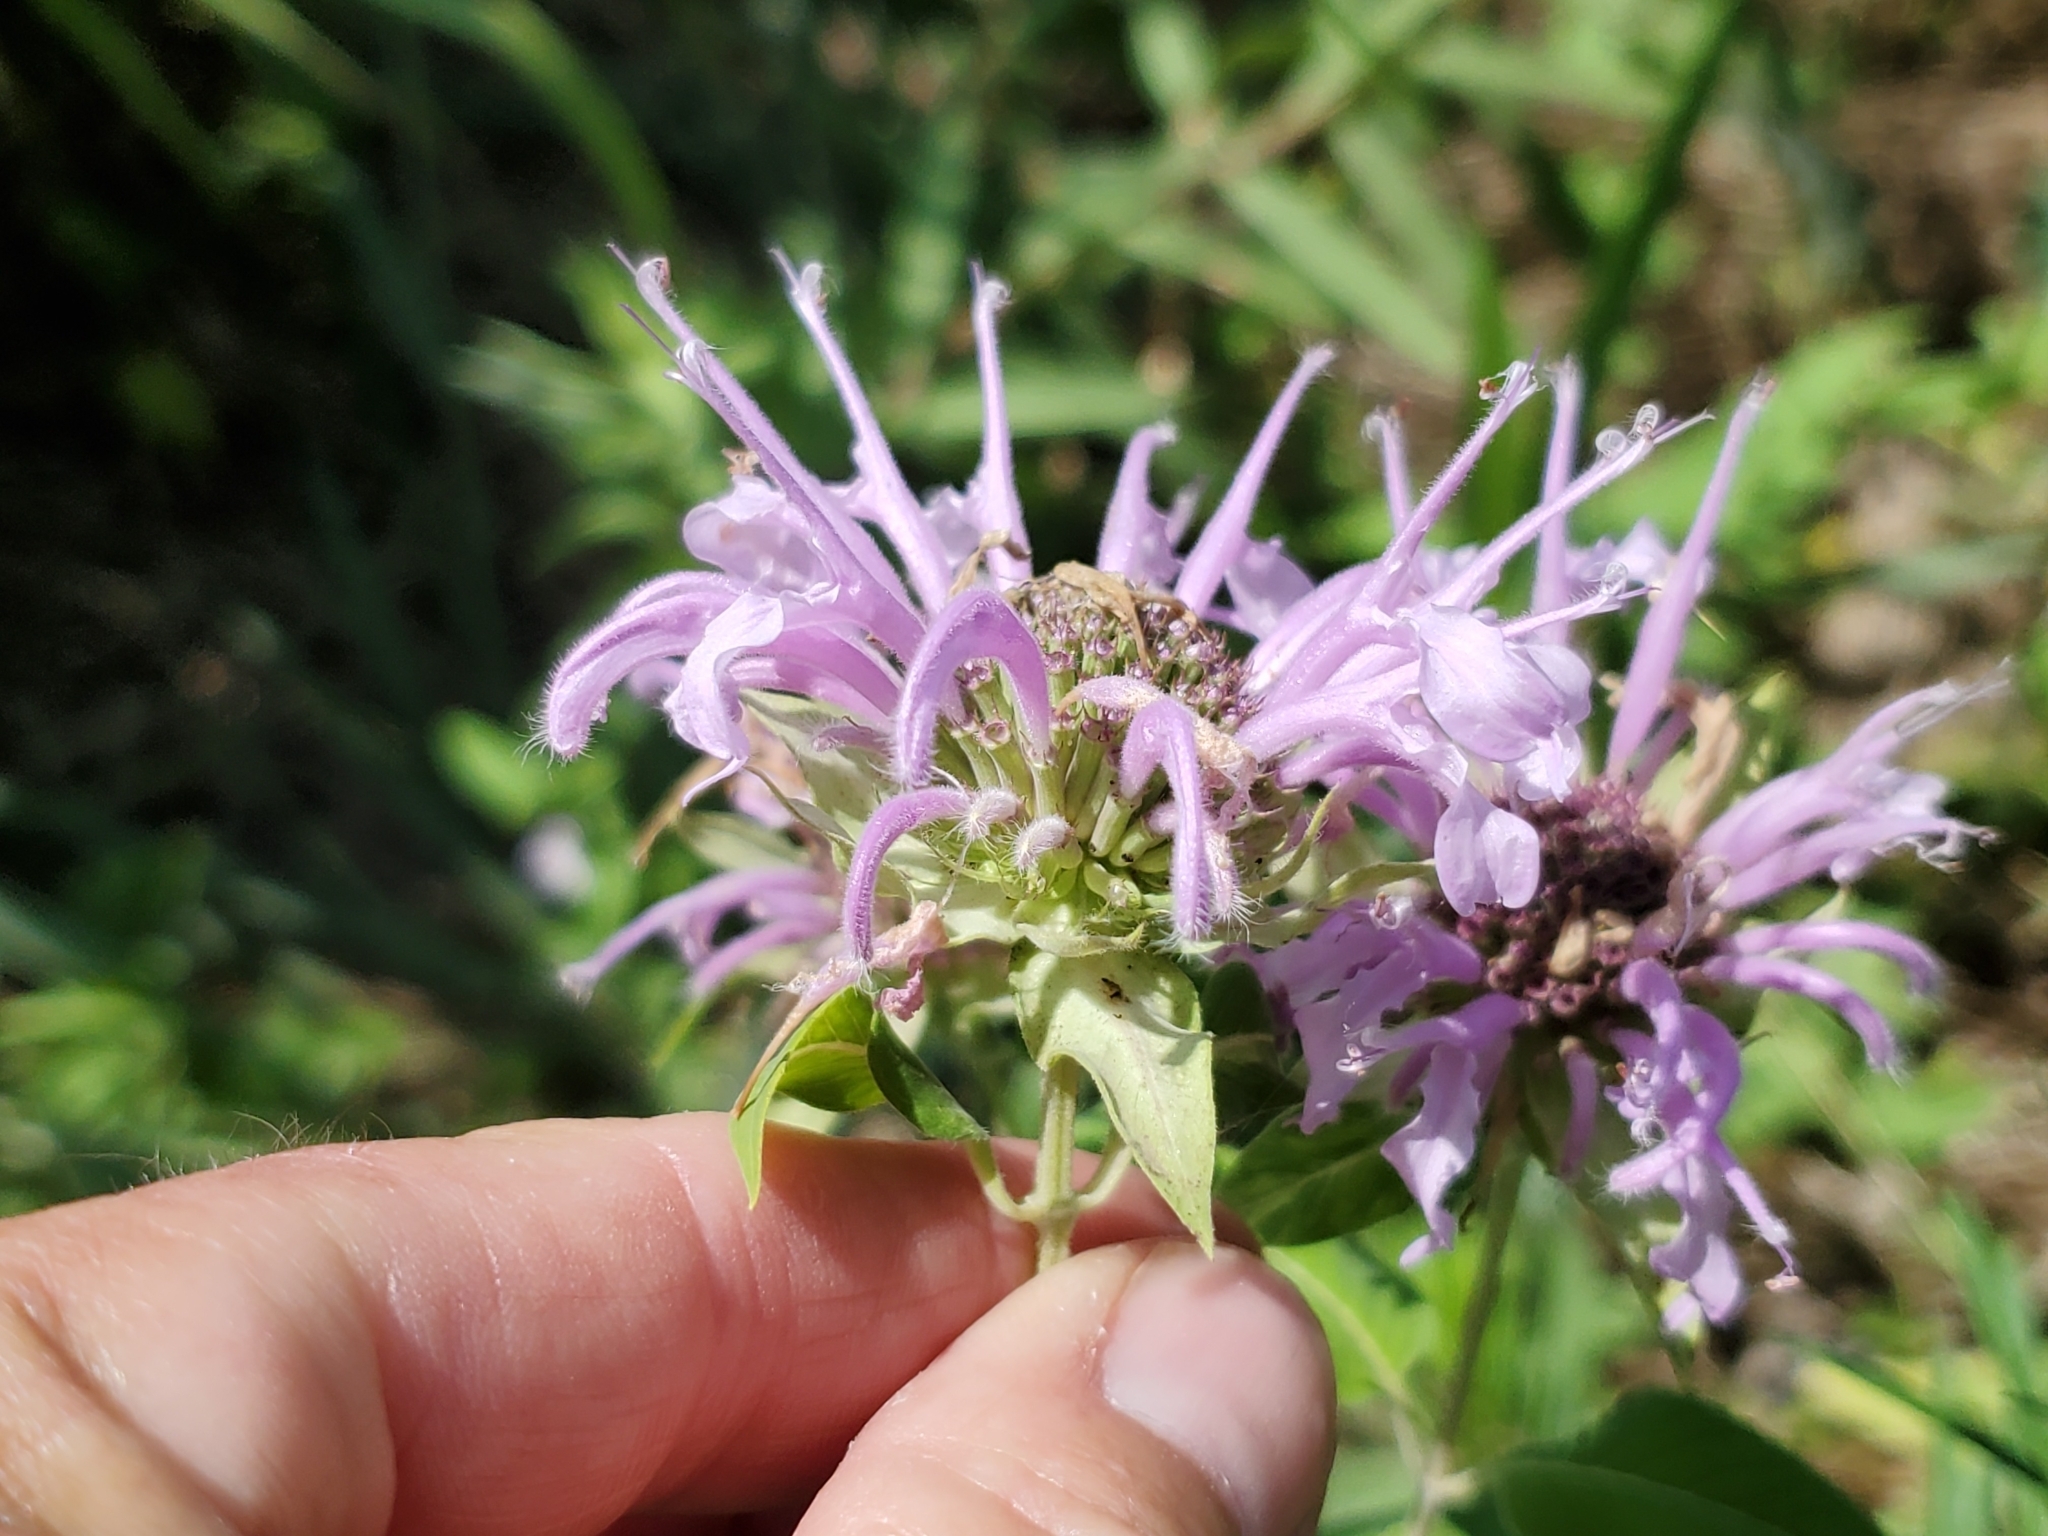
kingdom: Plantae
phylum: Tracheophyta
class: Magnoliopsida
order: Lamiales
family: Lamiaceae
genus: Monarda
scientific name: Monarda fistulosa
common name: Purple beebalm
